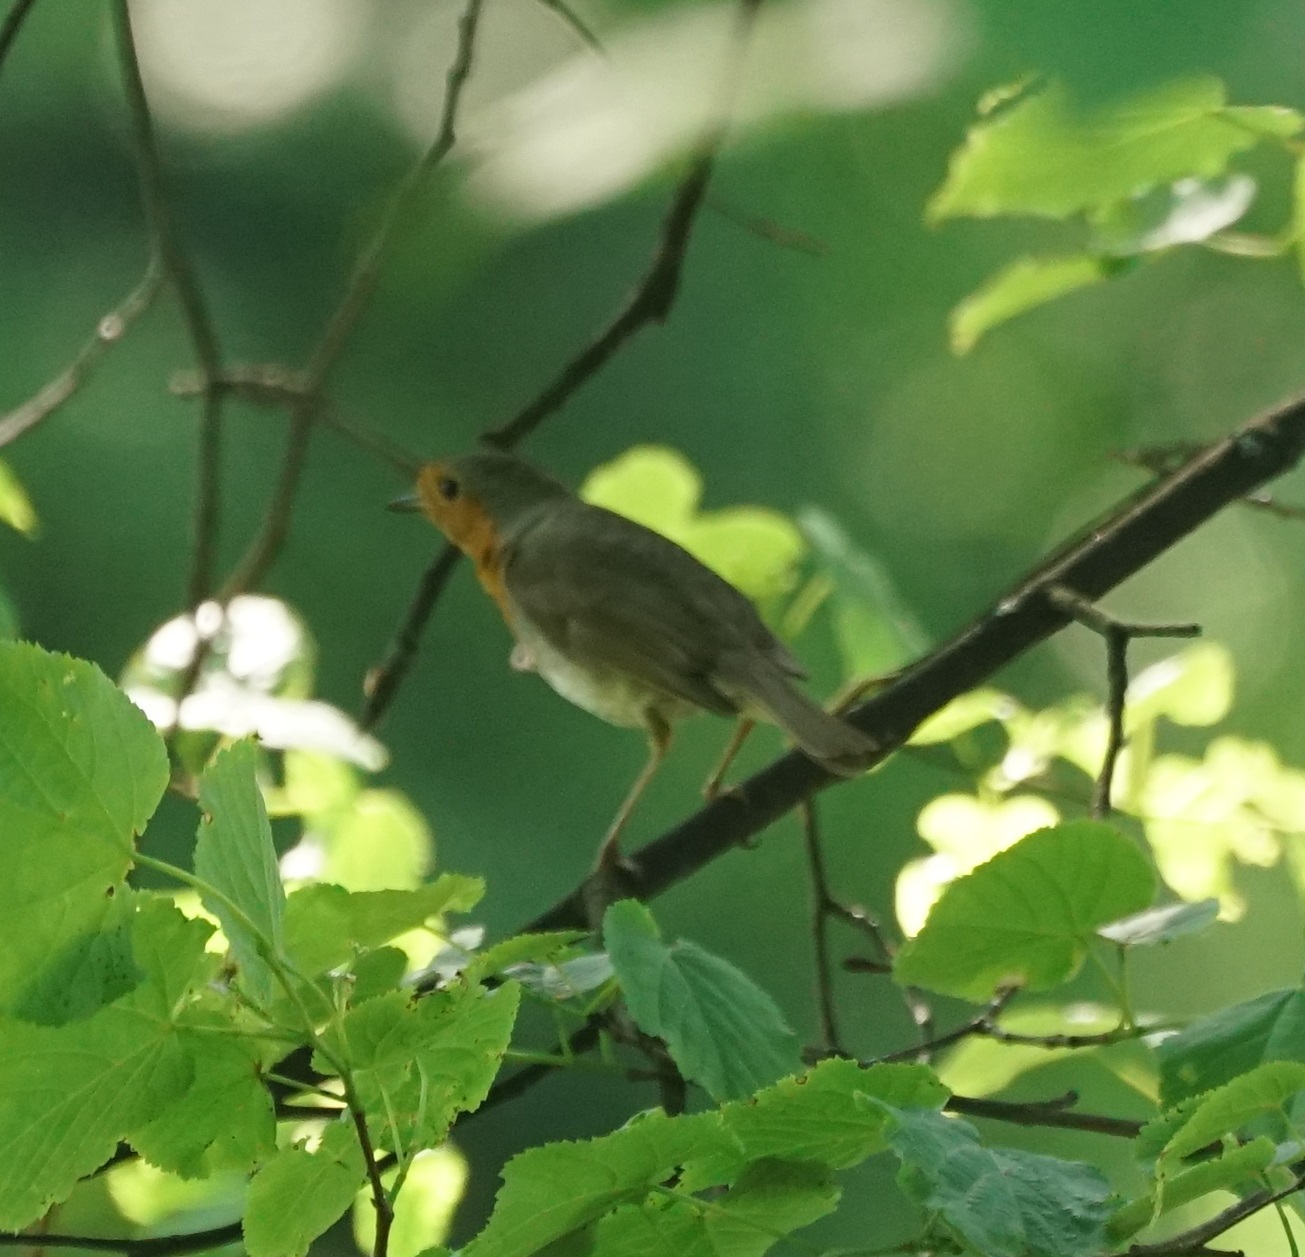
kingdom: Animalia
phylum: Chordata
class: Aves
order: Passeriformes
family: Muscicapidae
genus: Erithacus
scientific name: Erithacus rubecula
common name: European robin
